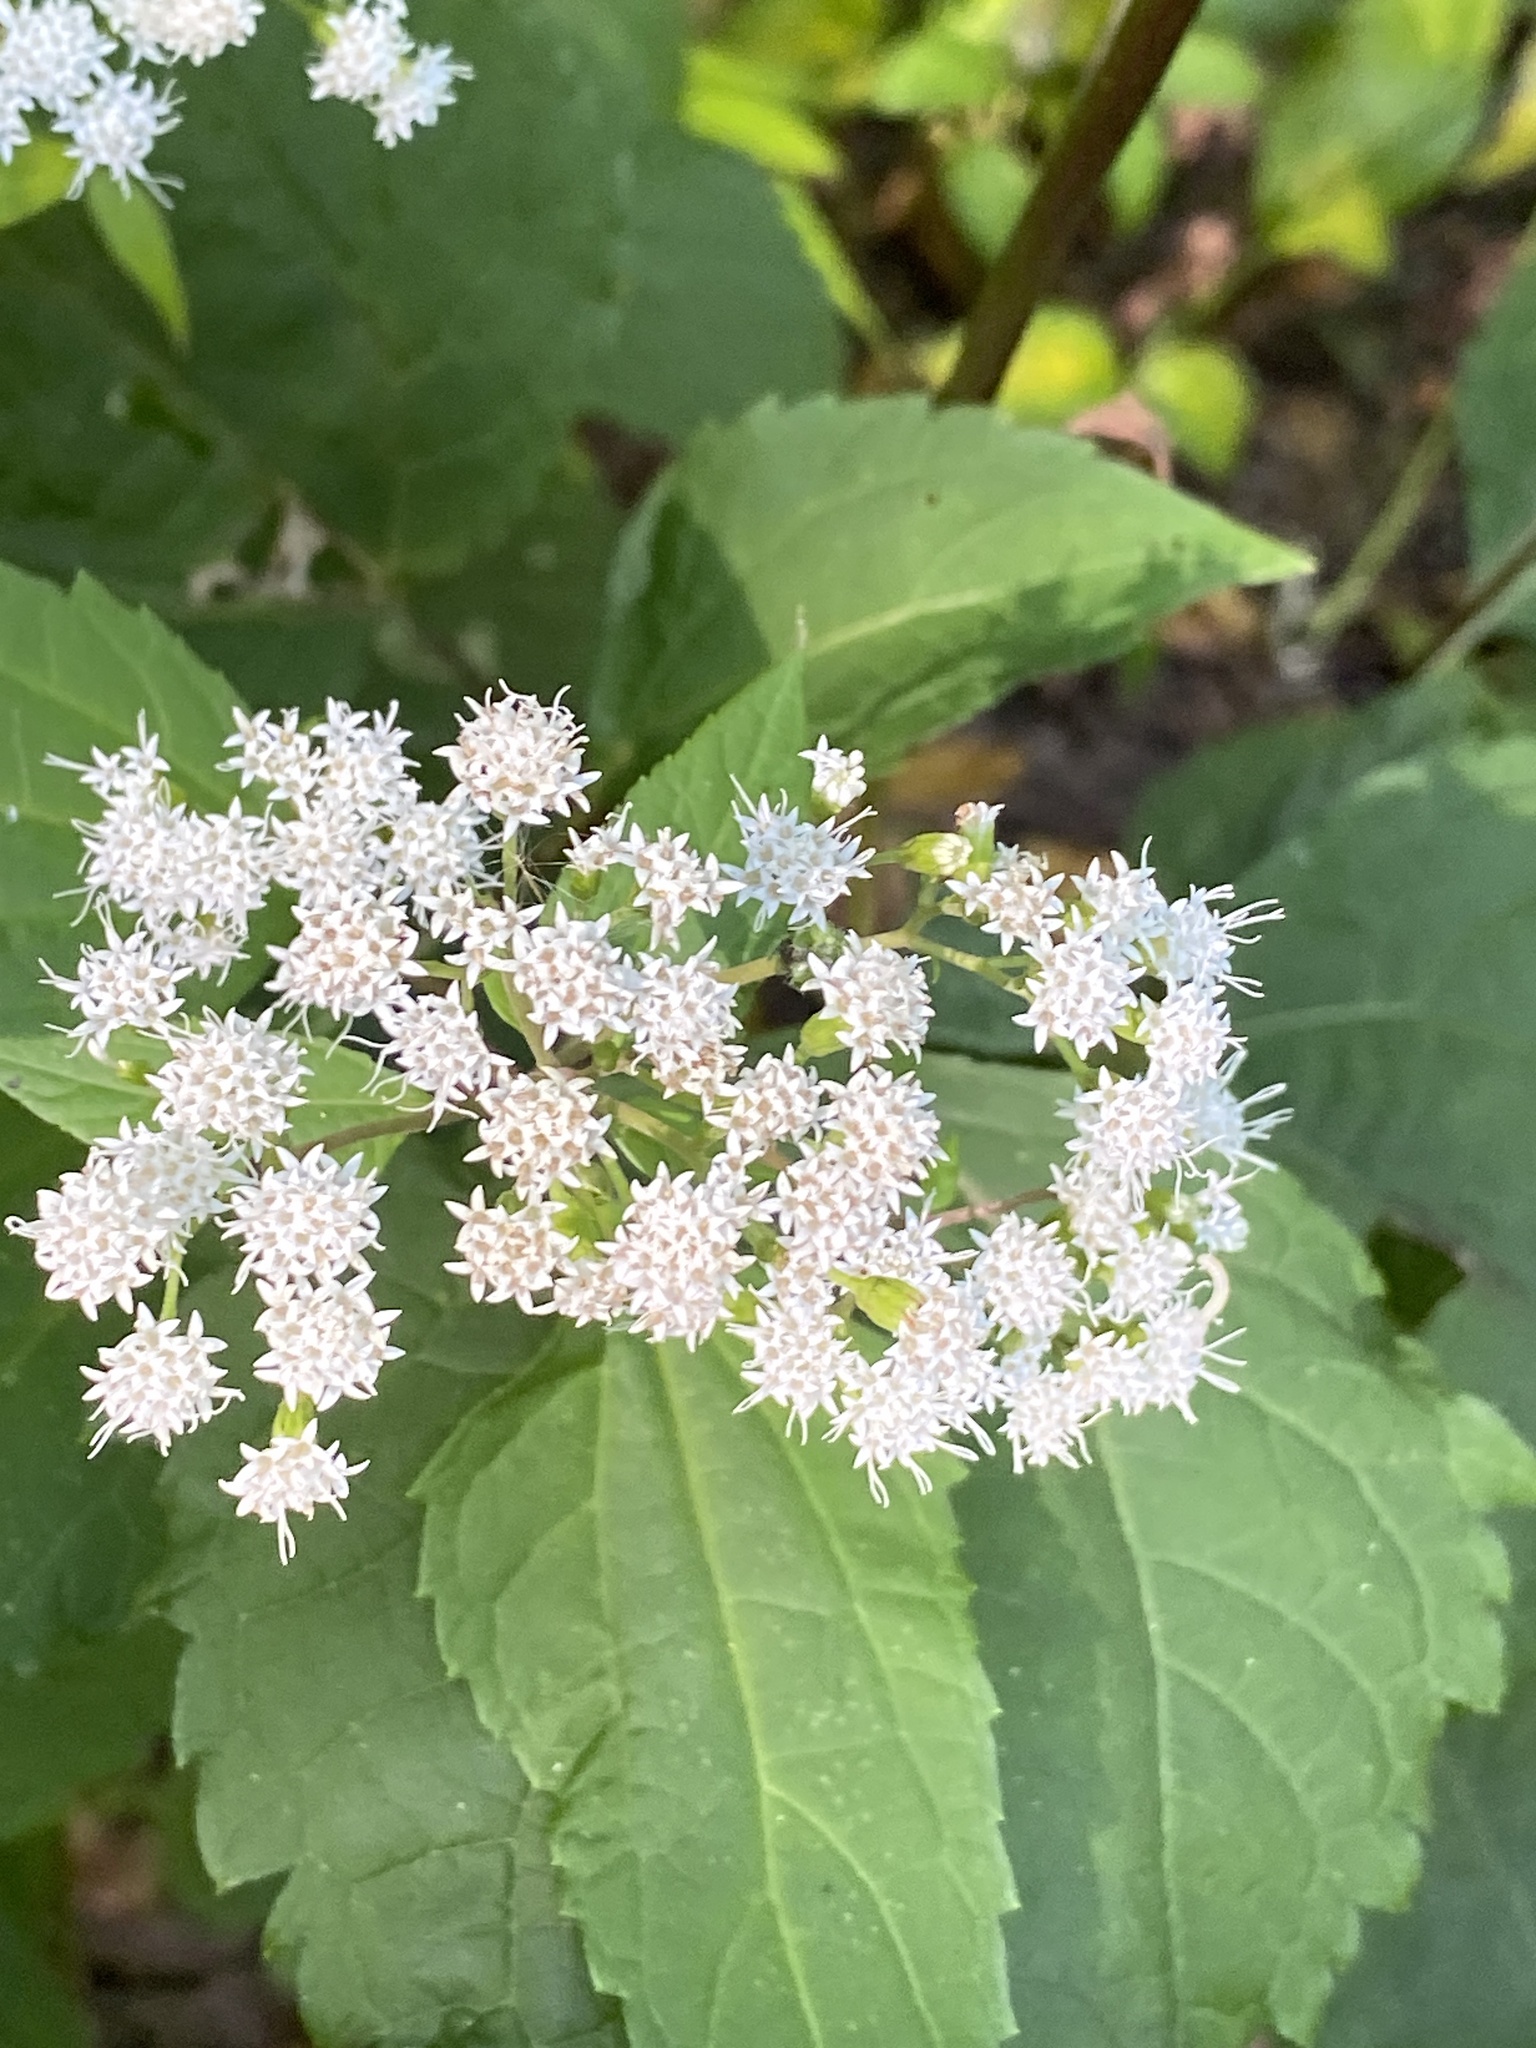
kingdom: Plantae
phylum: Tracheophyta
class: Magnoliopsida
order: Asterales
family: Asteraceae
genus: Ageratina
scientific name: Ageratina altissima
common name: White snakeroot
